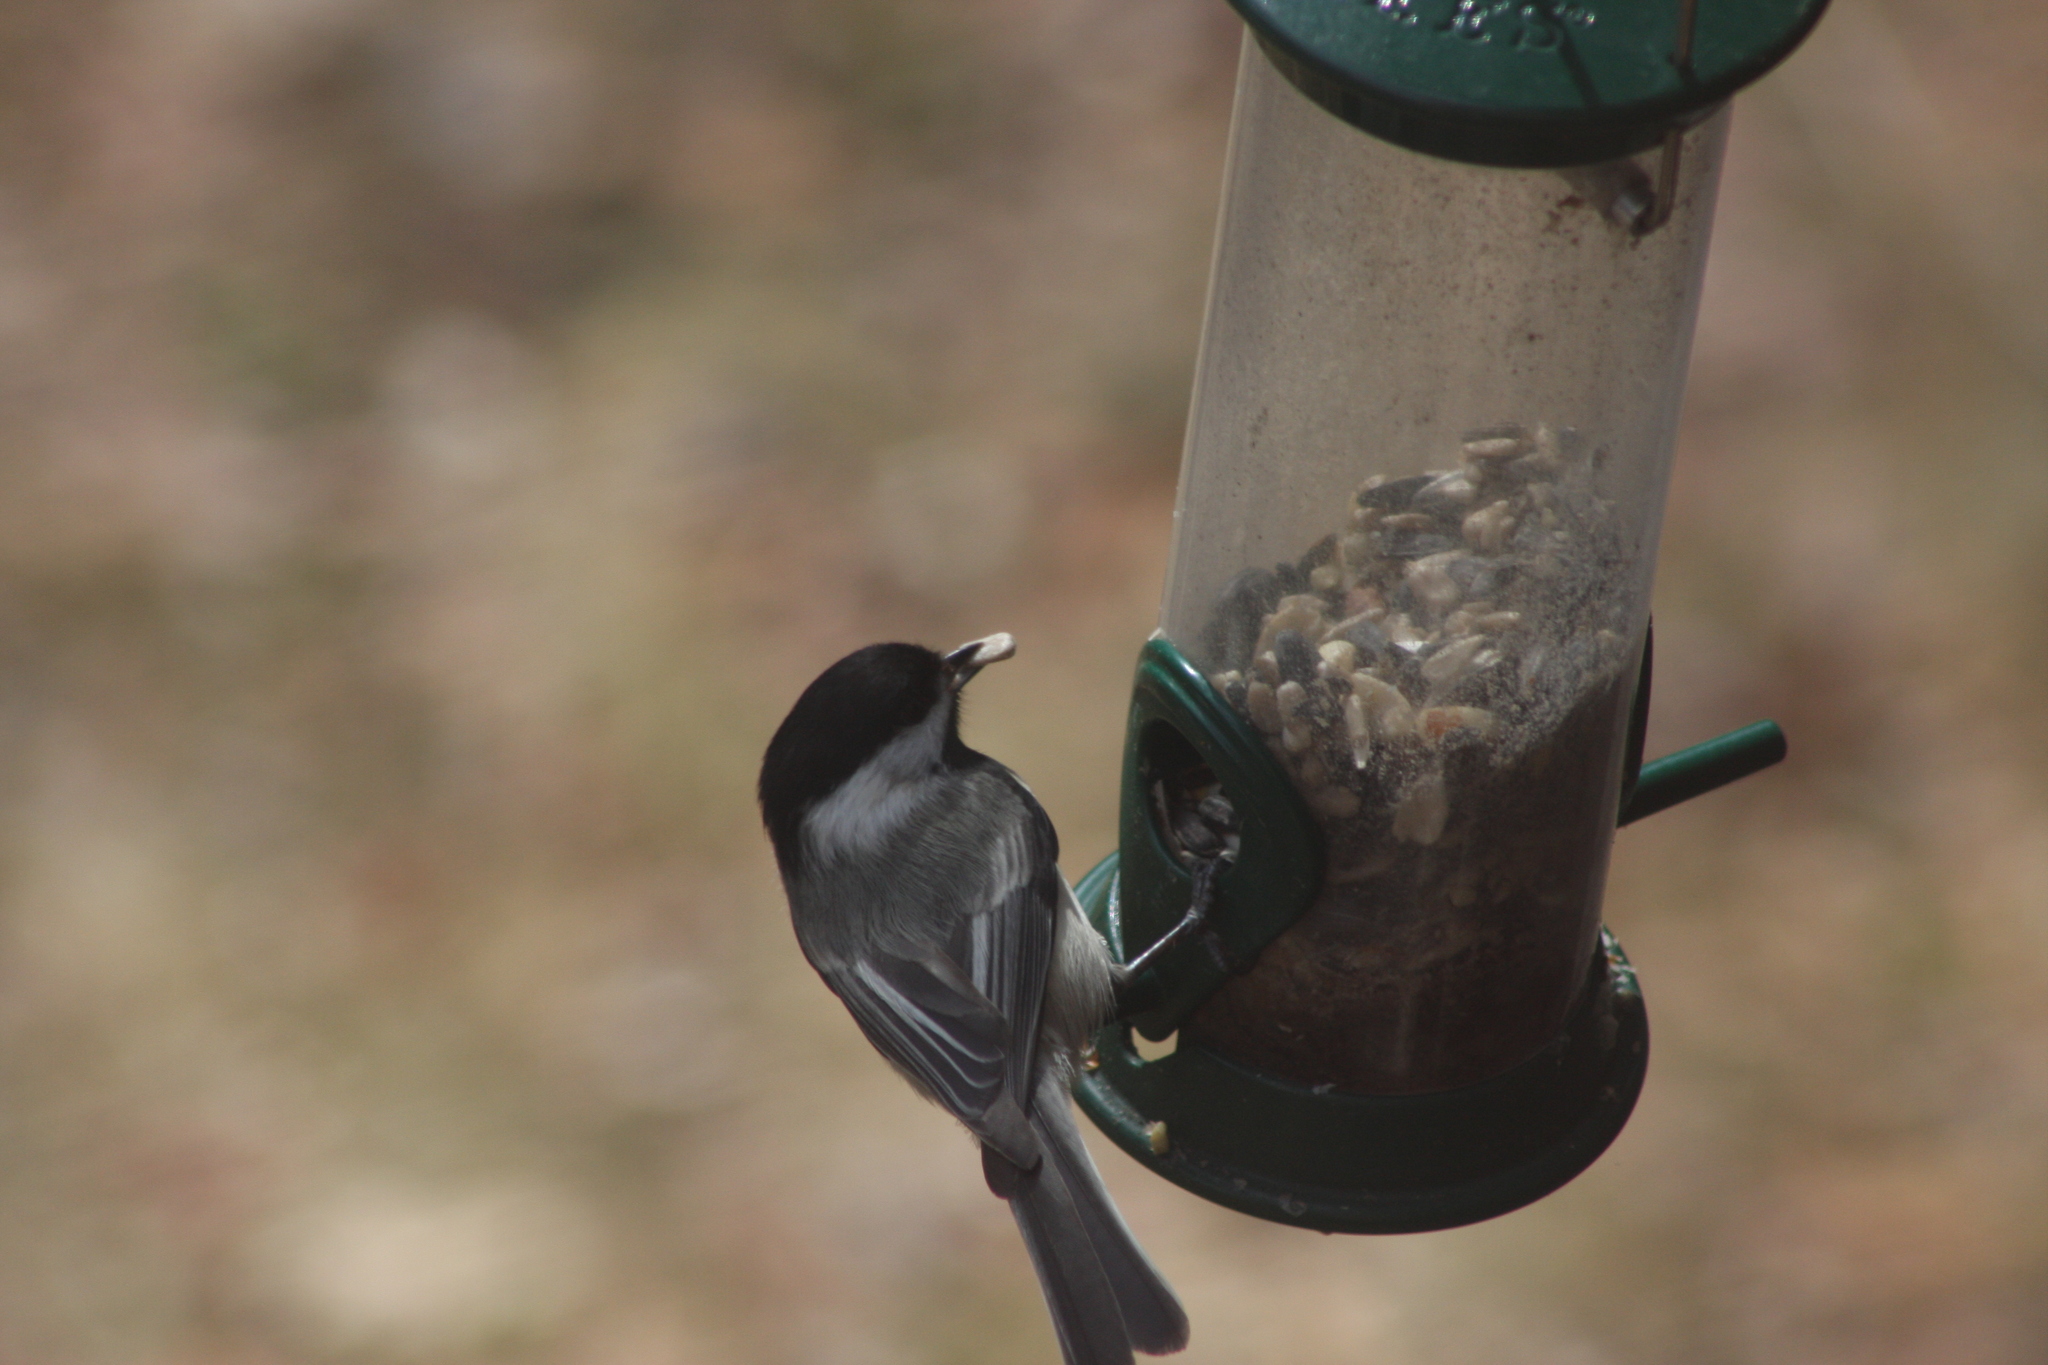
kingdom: Animalia
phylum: Chordata
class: Aves
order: Passeriformes
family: Paridae
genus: Poecile
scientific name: Poecile atricapillus
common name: Black-capped chickadee
